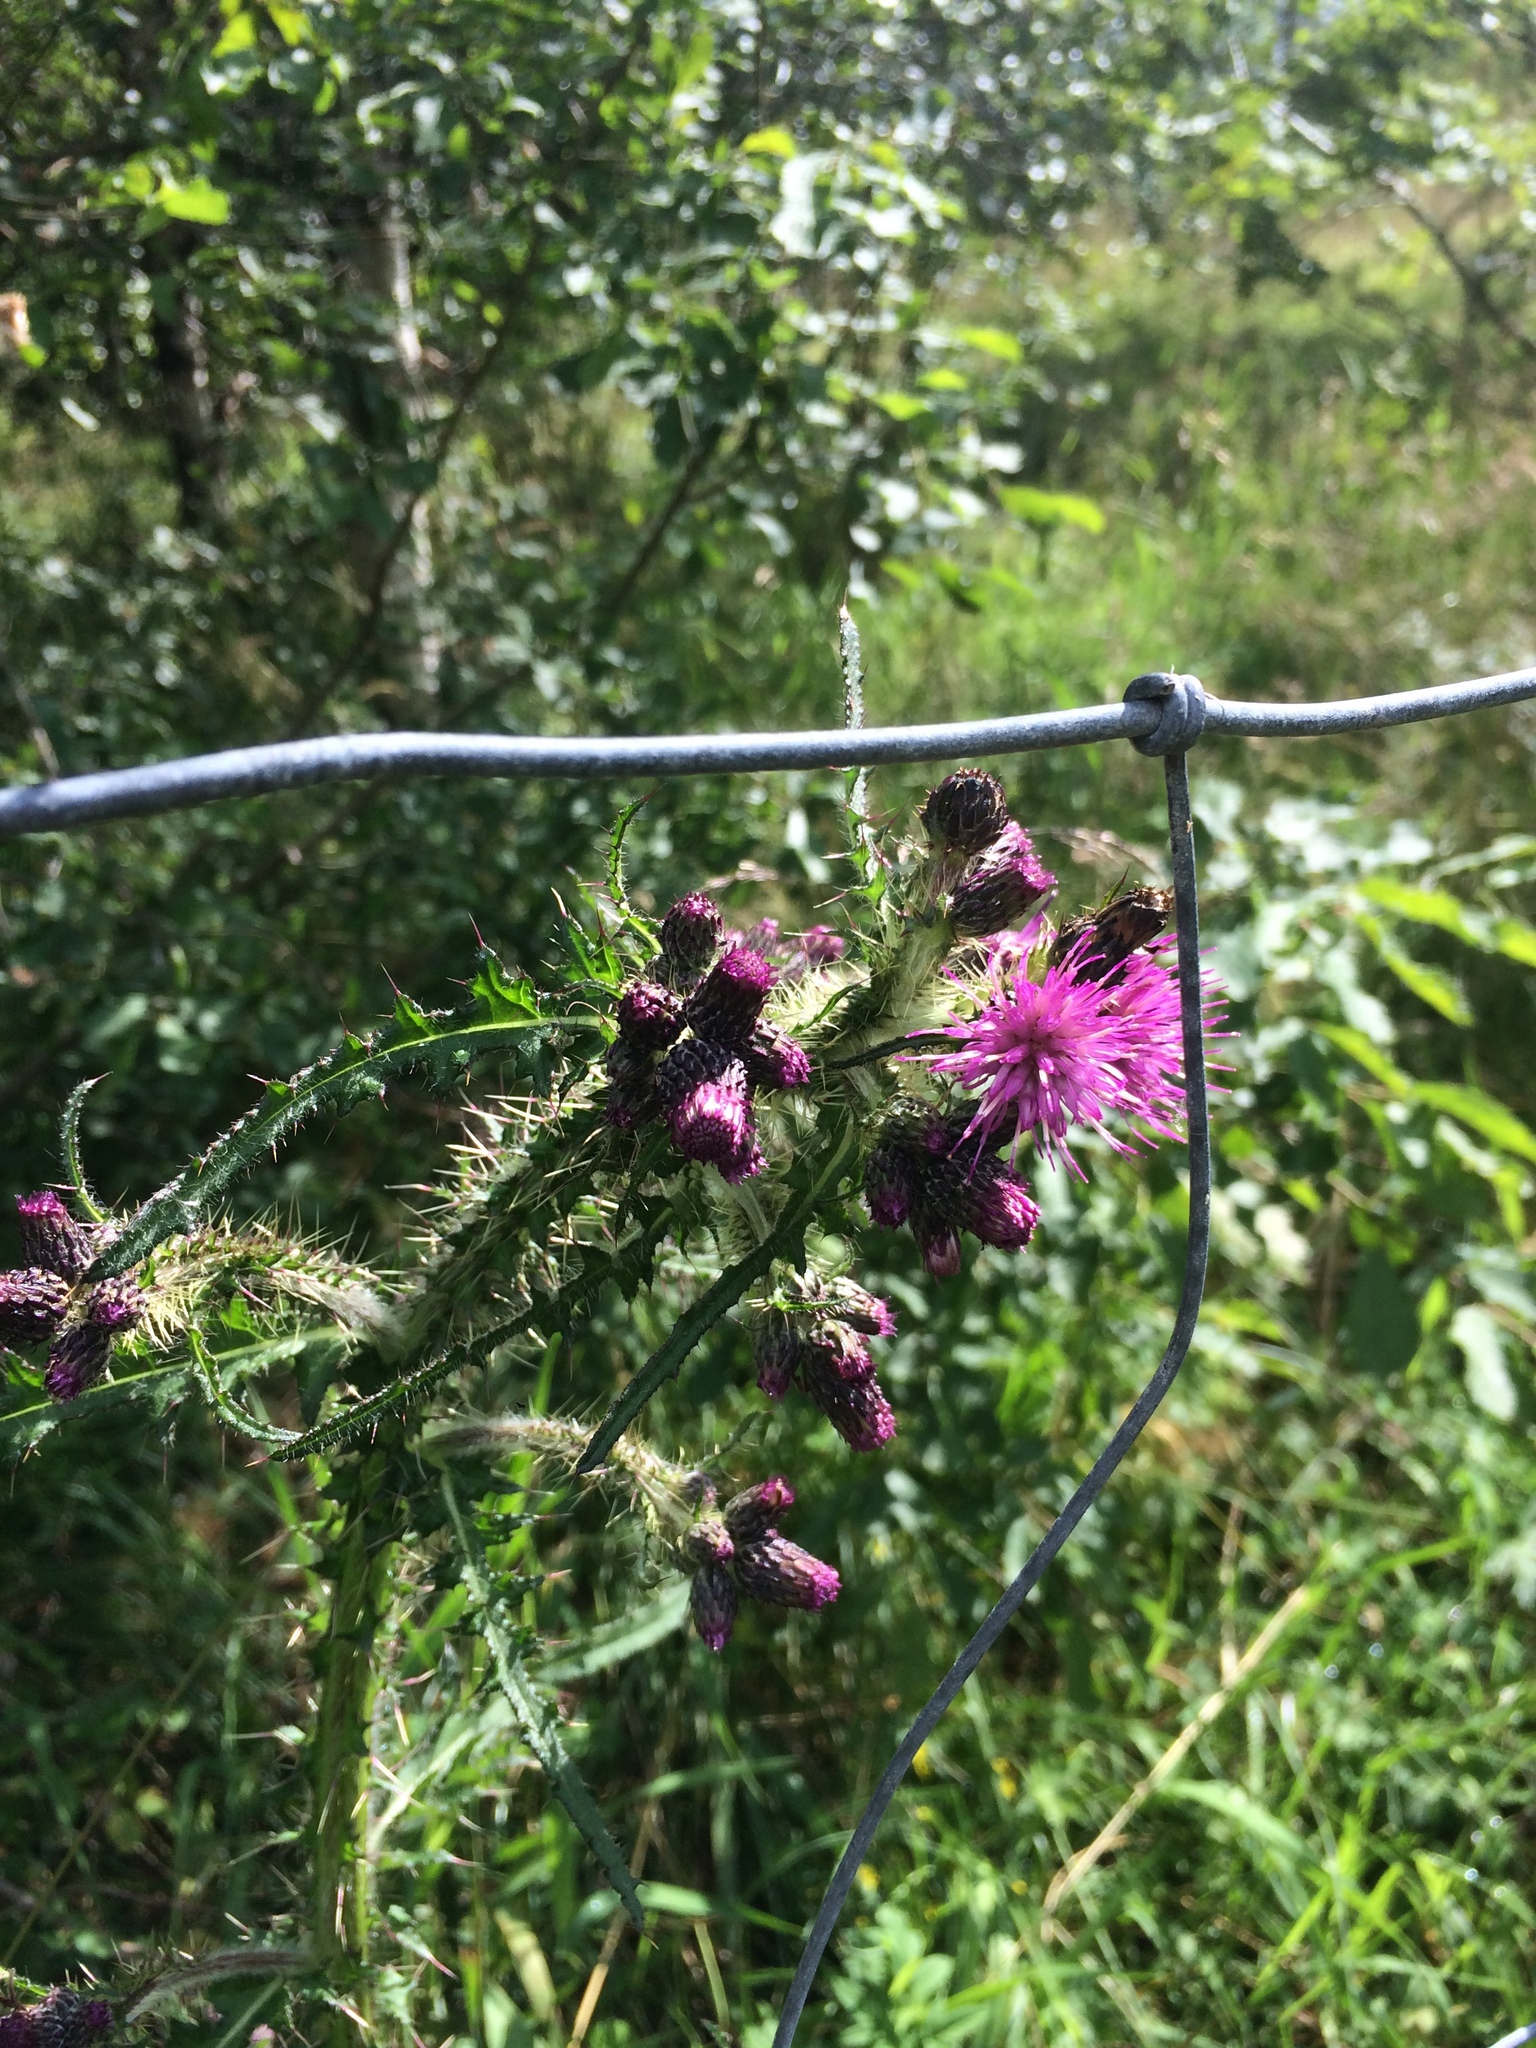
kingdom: Plantae
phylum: Tracheophyta
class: Magnoliopsida
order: Asterales
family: Asteraceae
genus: Cirsium
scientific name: Cirsium palustre
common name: Marsh thistle
